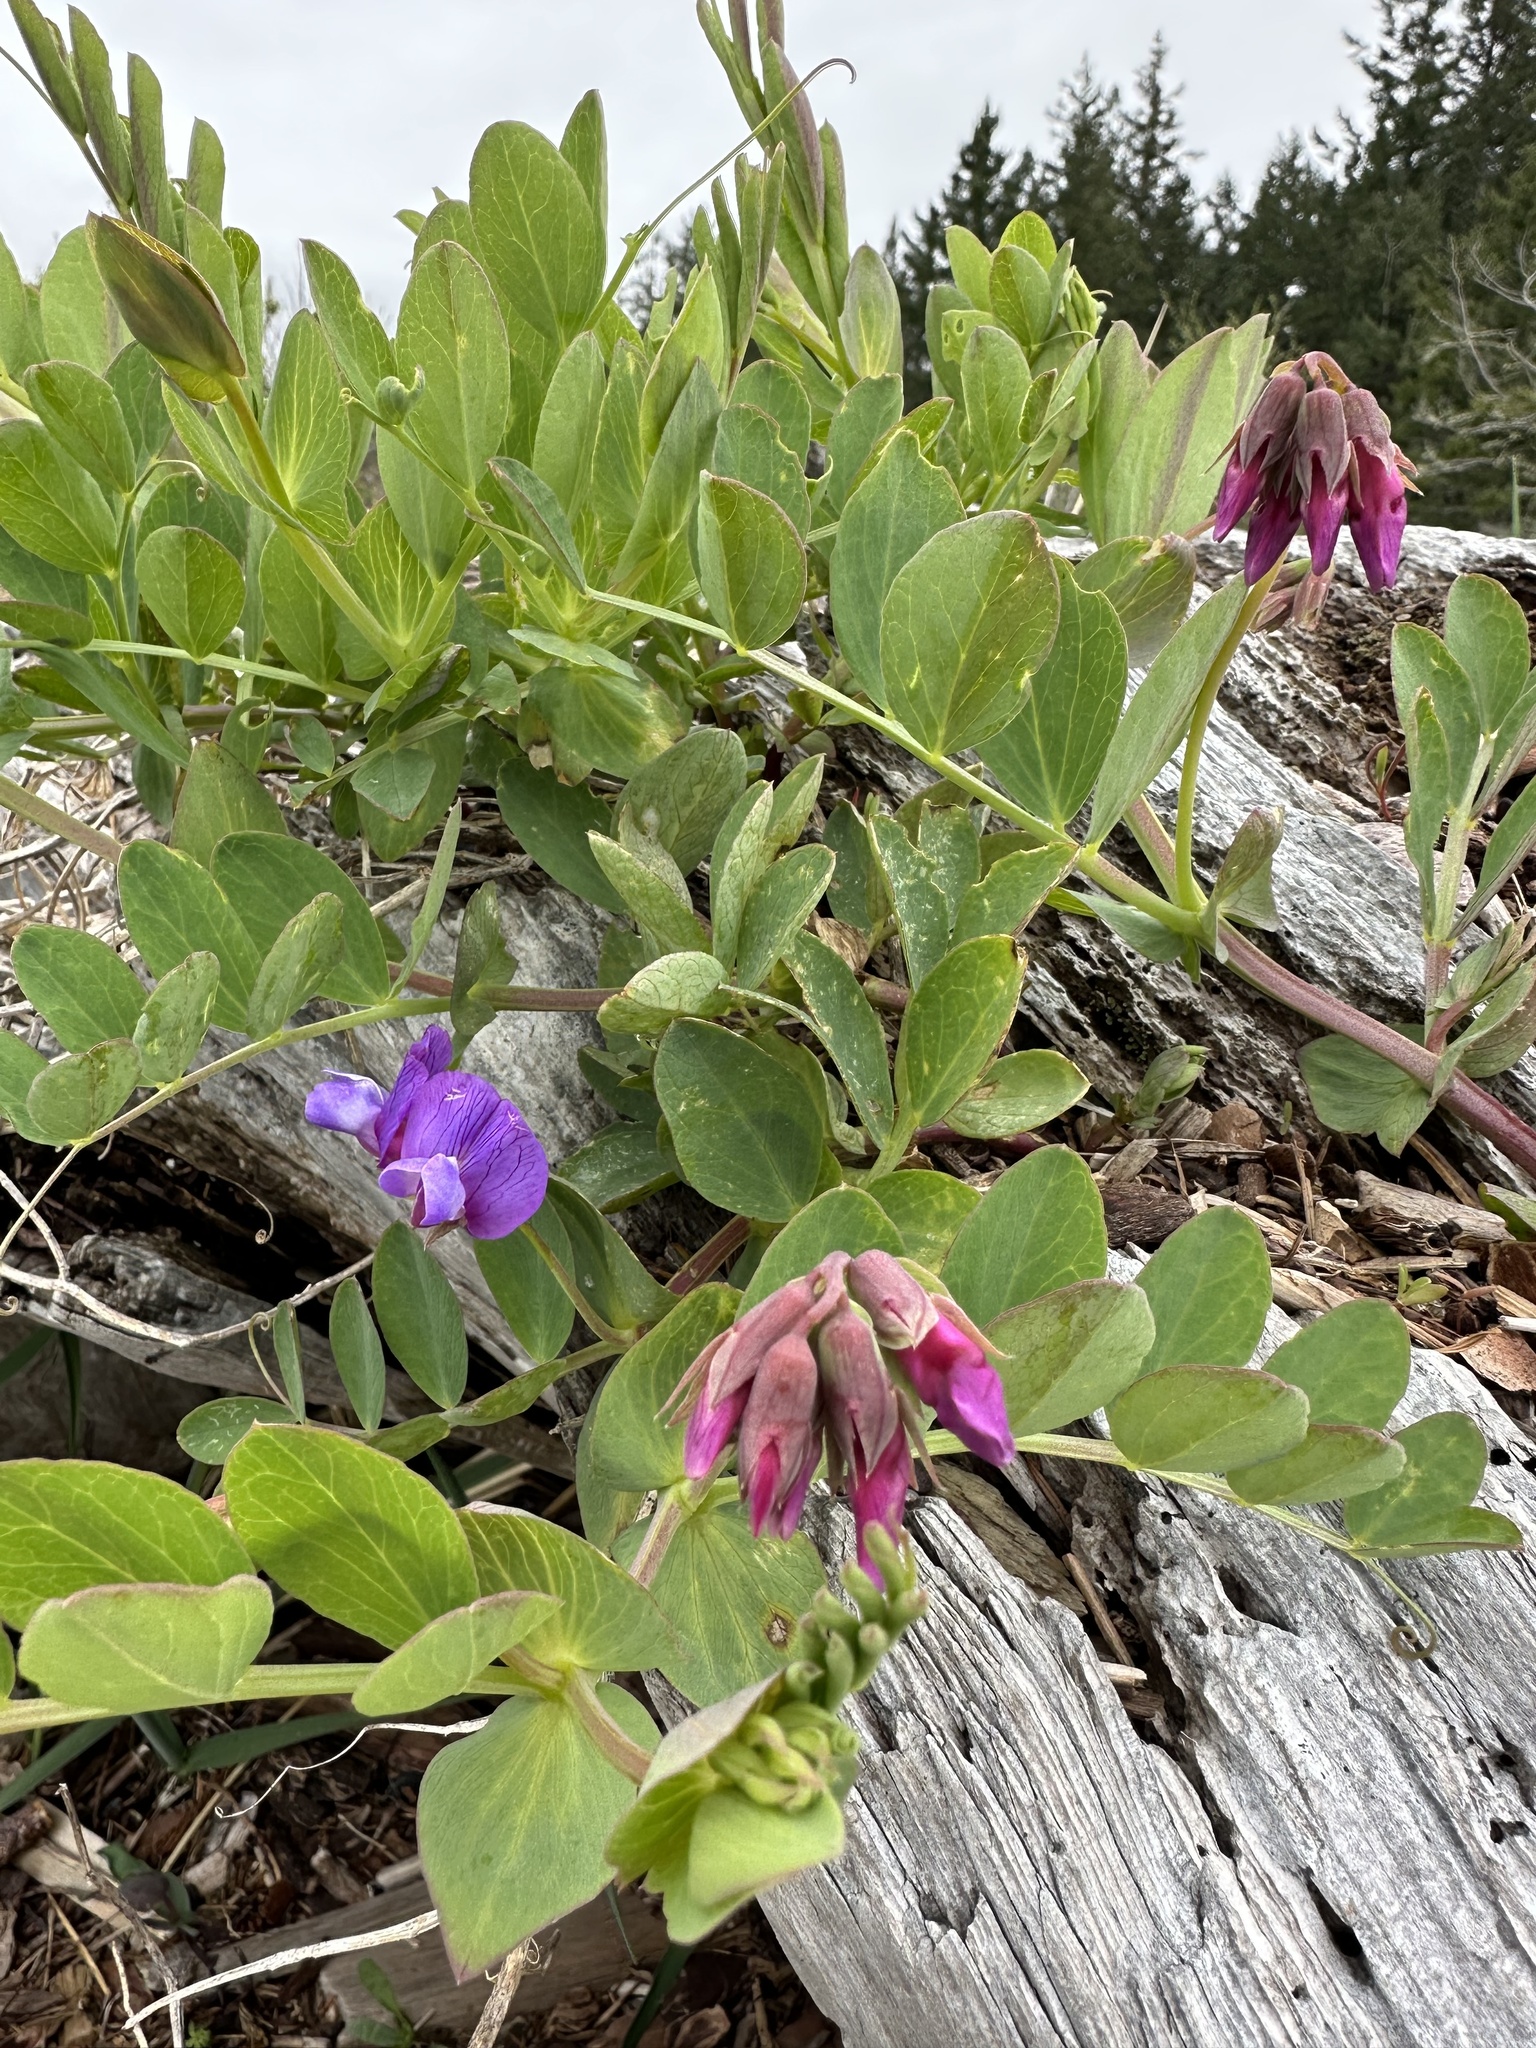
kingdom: Plantae
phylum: Tracheophyta
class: Magnoliopsida
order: Fabales
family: Fabaceae
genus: Lathyrus
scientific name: Lathyrus japonicus
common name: Sea pea
